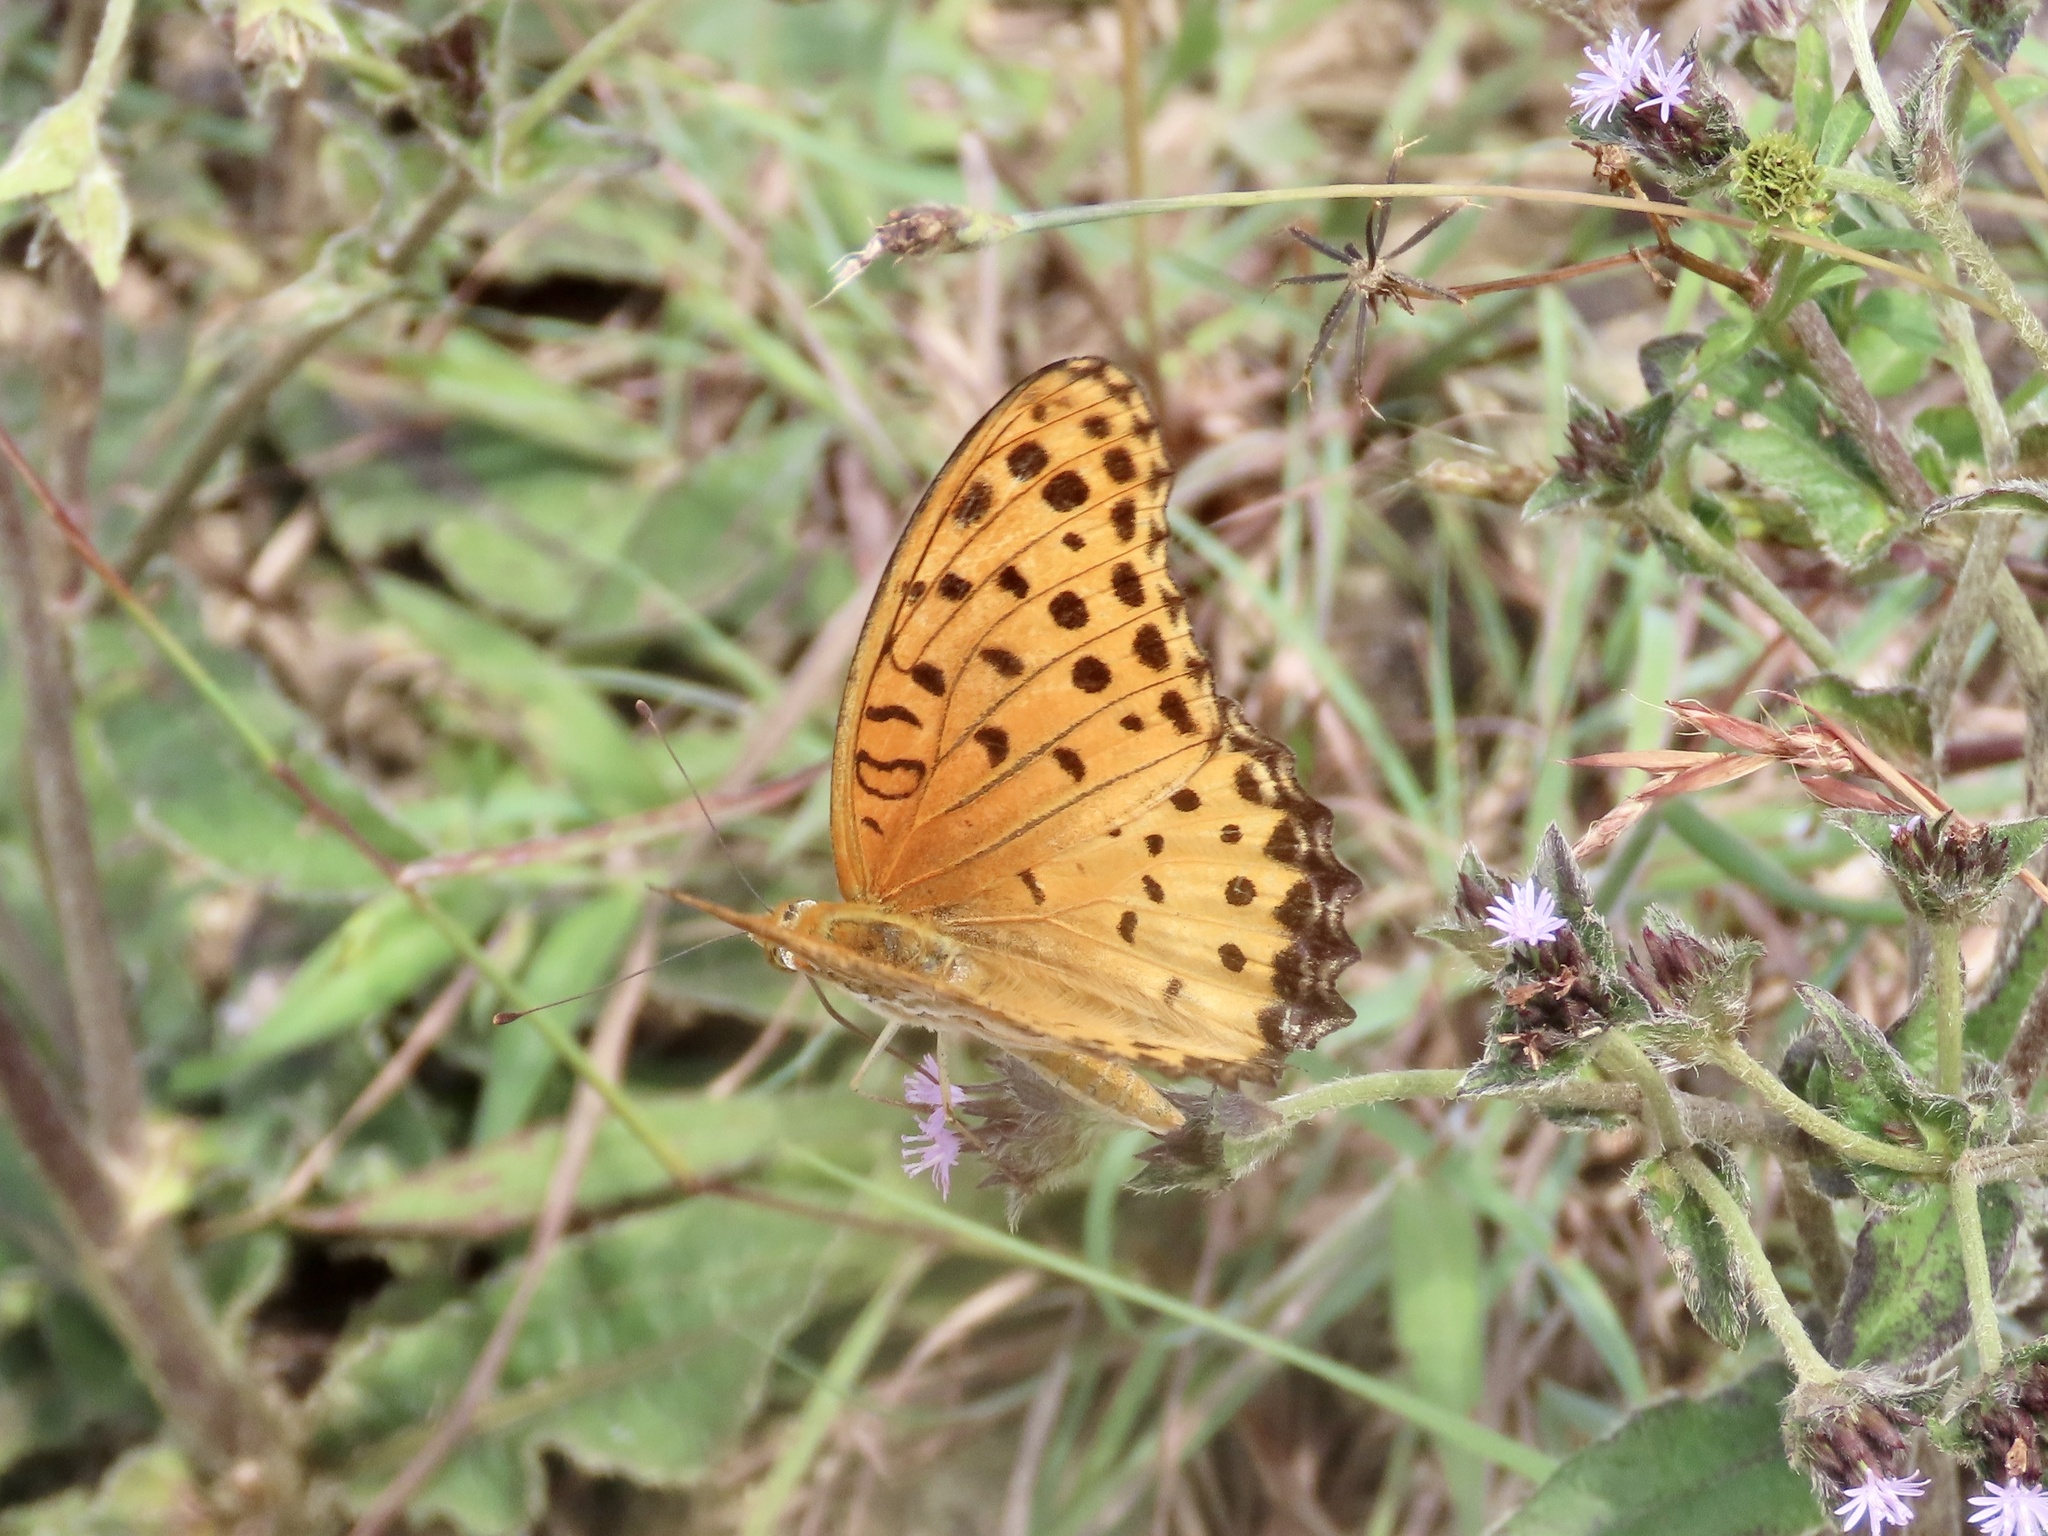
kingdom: Animalia
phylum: Arthropoda
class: Insecta
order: Lepidoptera
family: Nymphalidae
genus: Argynnis
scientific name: Argynnis hyperbius
